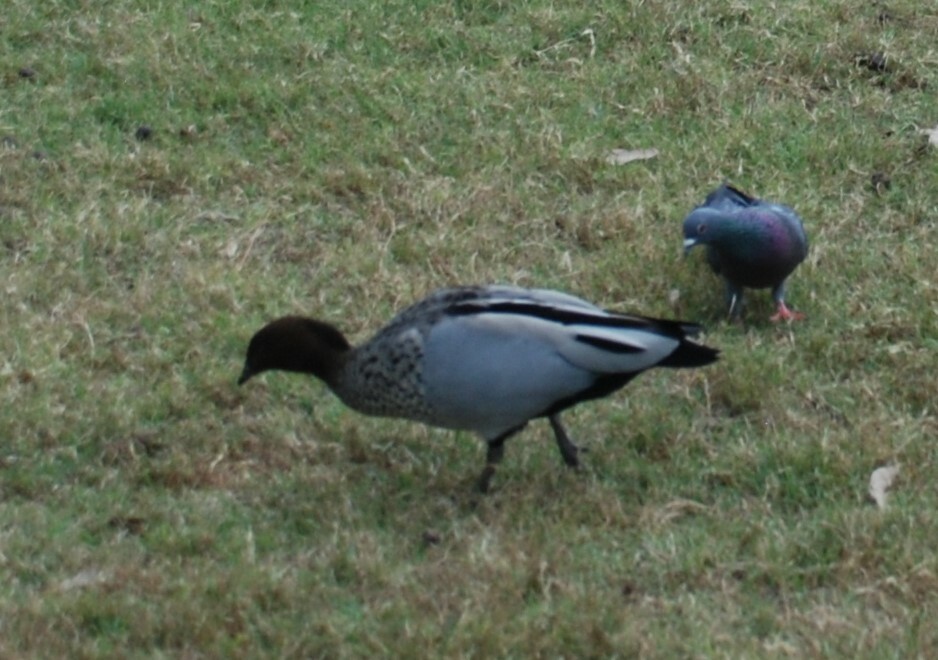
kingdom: Animalia
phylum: Chordata
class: Aves
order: Anseriformes
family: Anatidae
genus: Chenonetta
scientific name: Chenonetta jubata
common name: Maned duck
